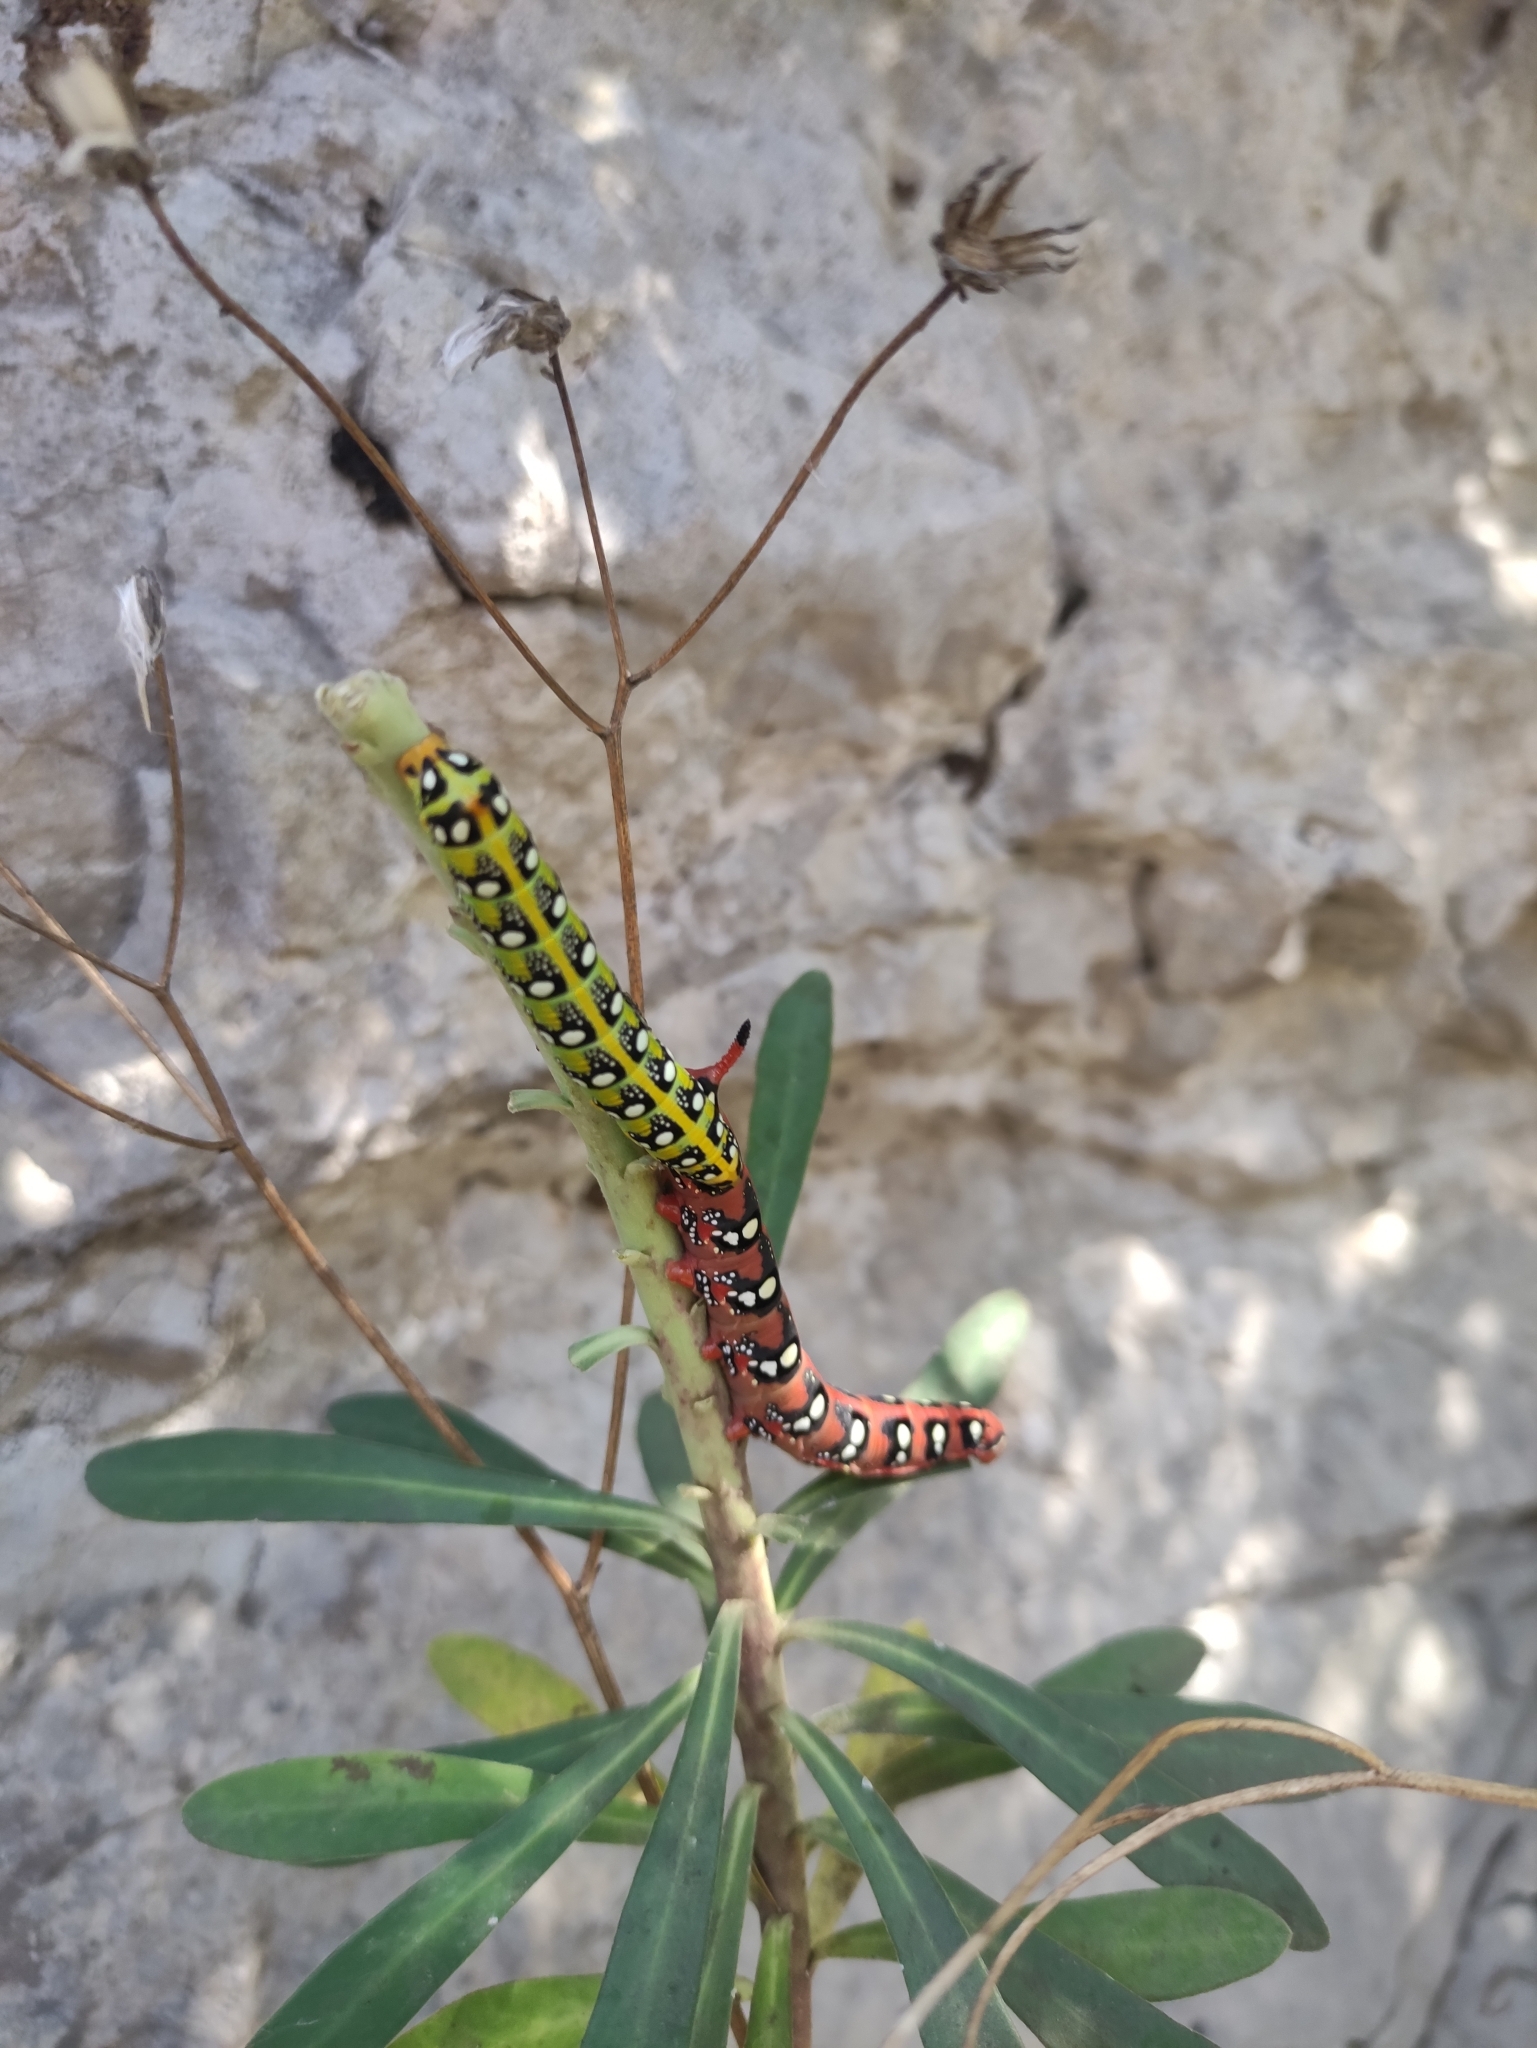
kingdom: Animalia
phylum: Arthropoda
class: Insecta
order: Lepidoptera
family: Sphingidae
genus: Hyles
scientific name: Hyles euphorbiae
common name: Spurge hawk-moth
